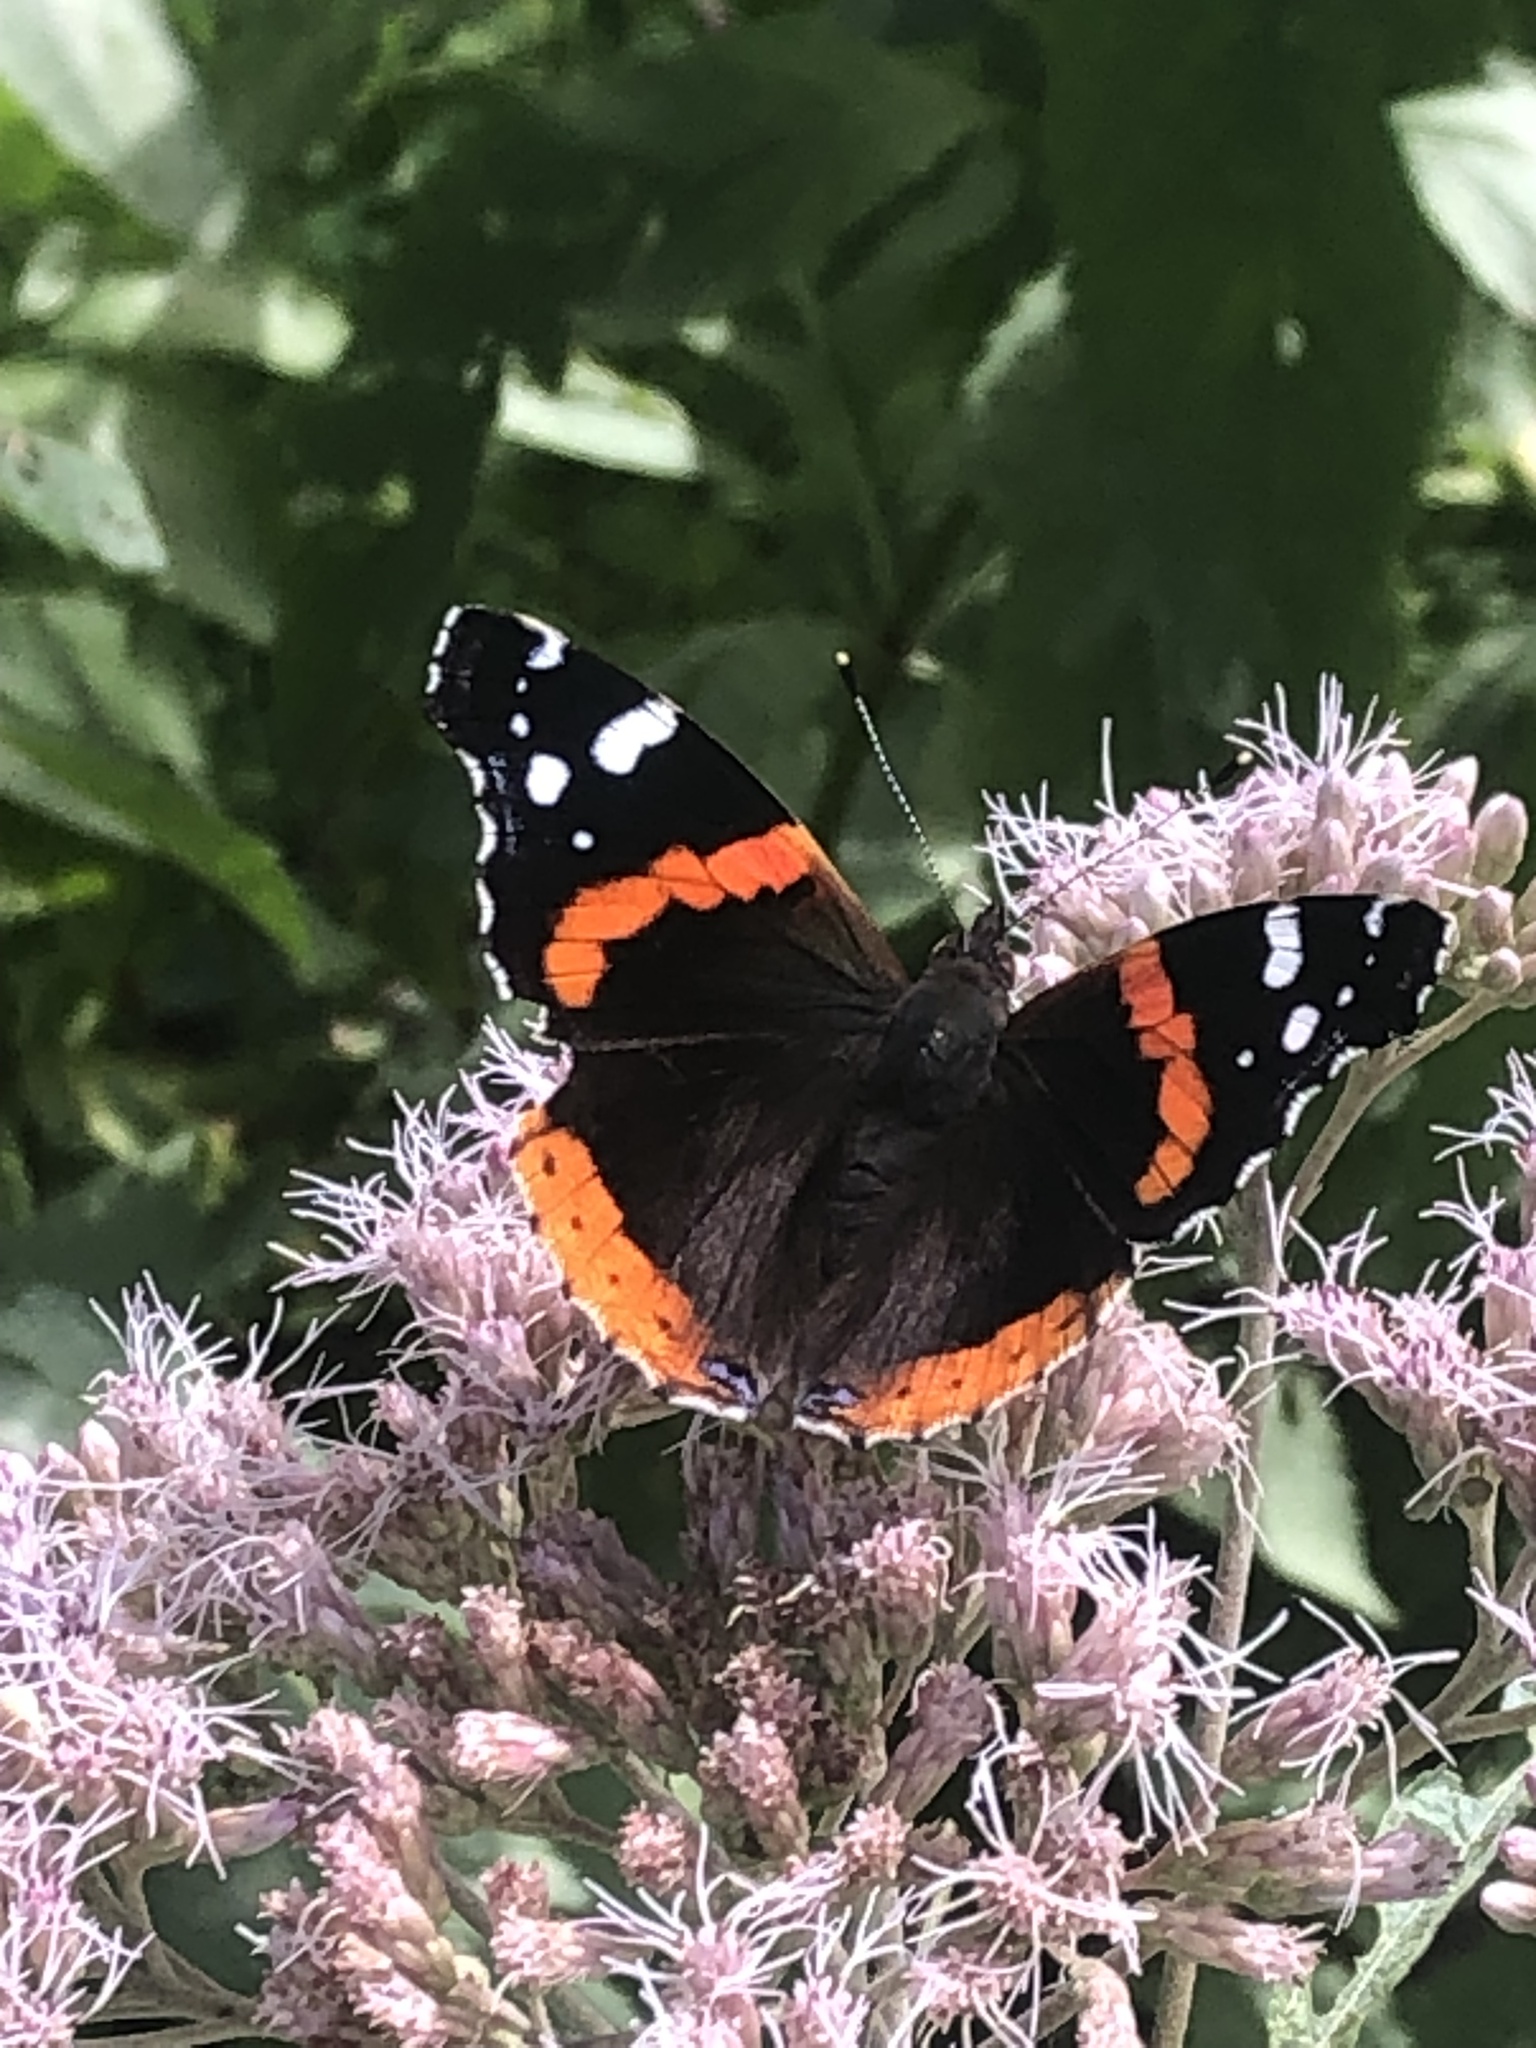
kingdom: Animalia
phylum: Arthropoda
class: Insecta
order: Lepidoptera
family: Nymphalidae
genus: Vanessa
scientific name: Vanessa atalanta
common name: Red admiral
